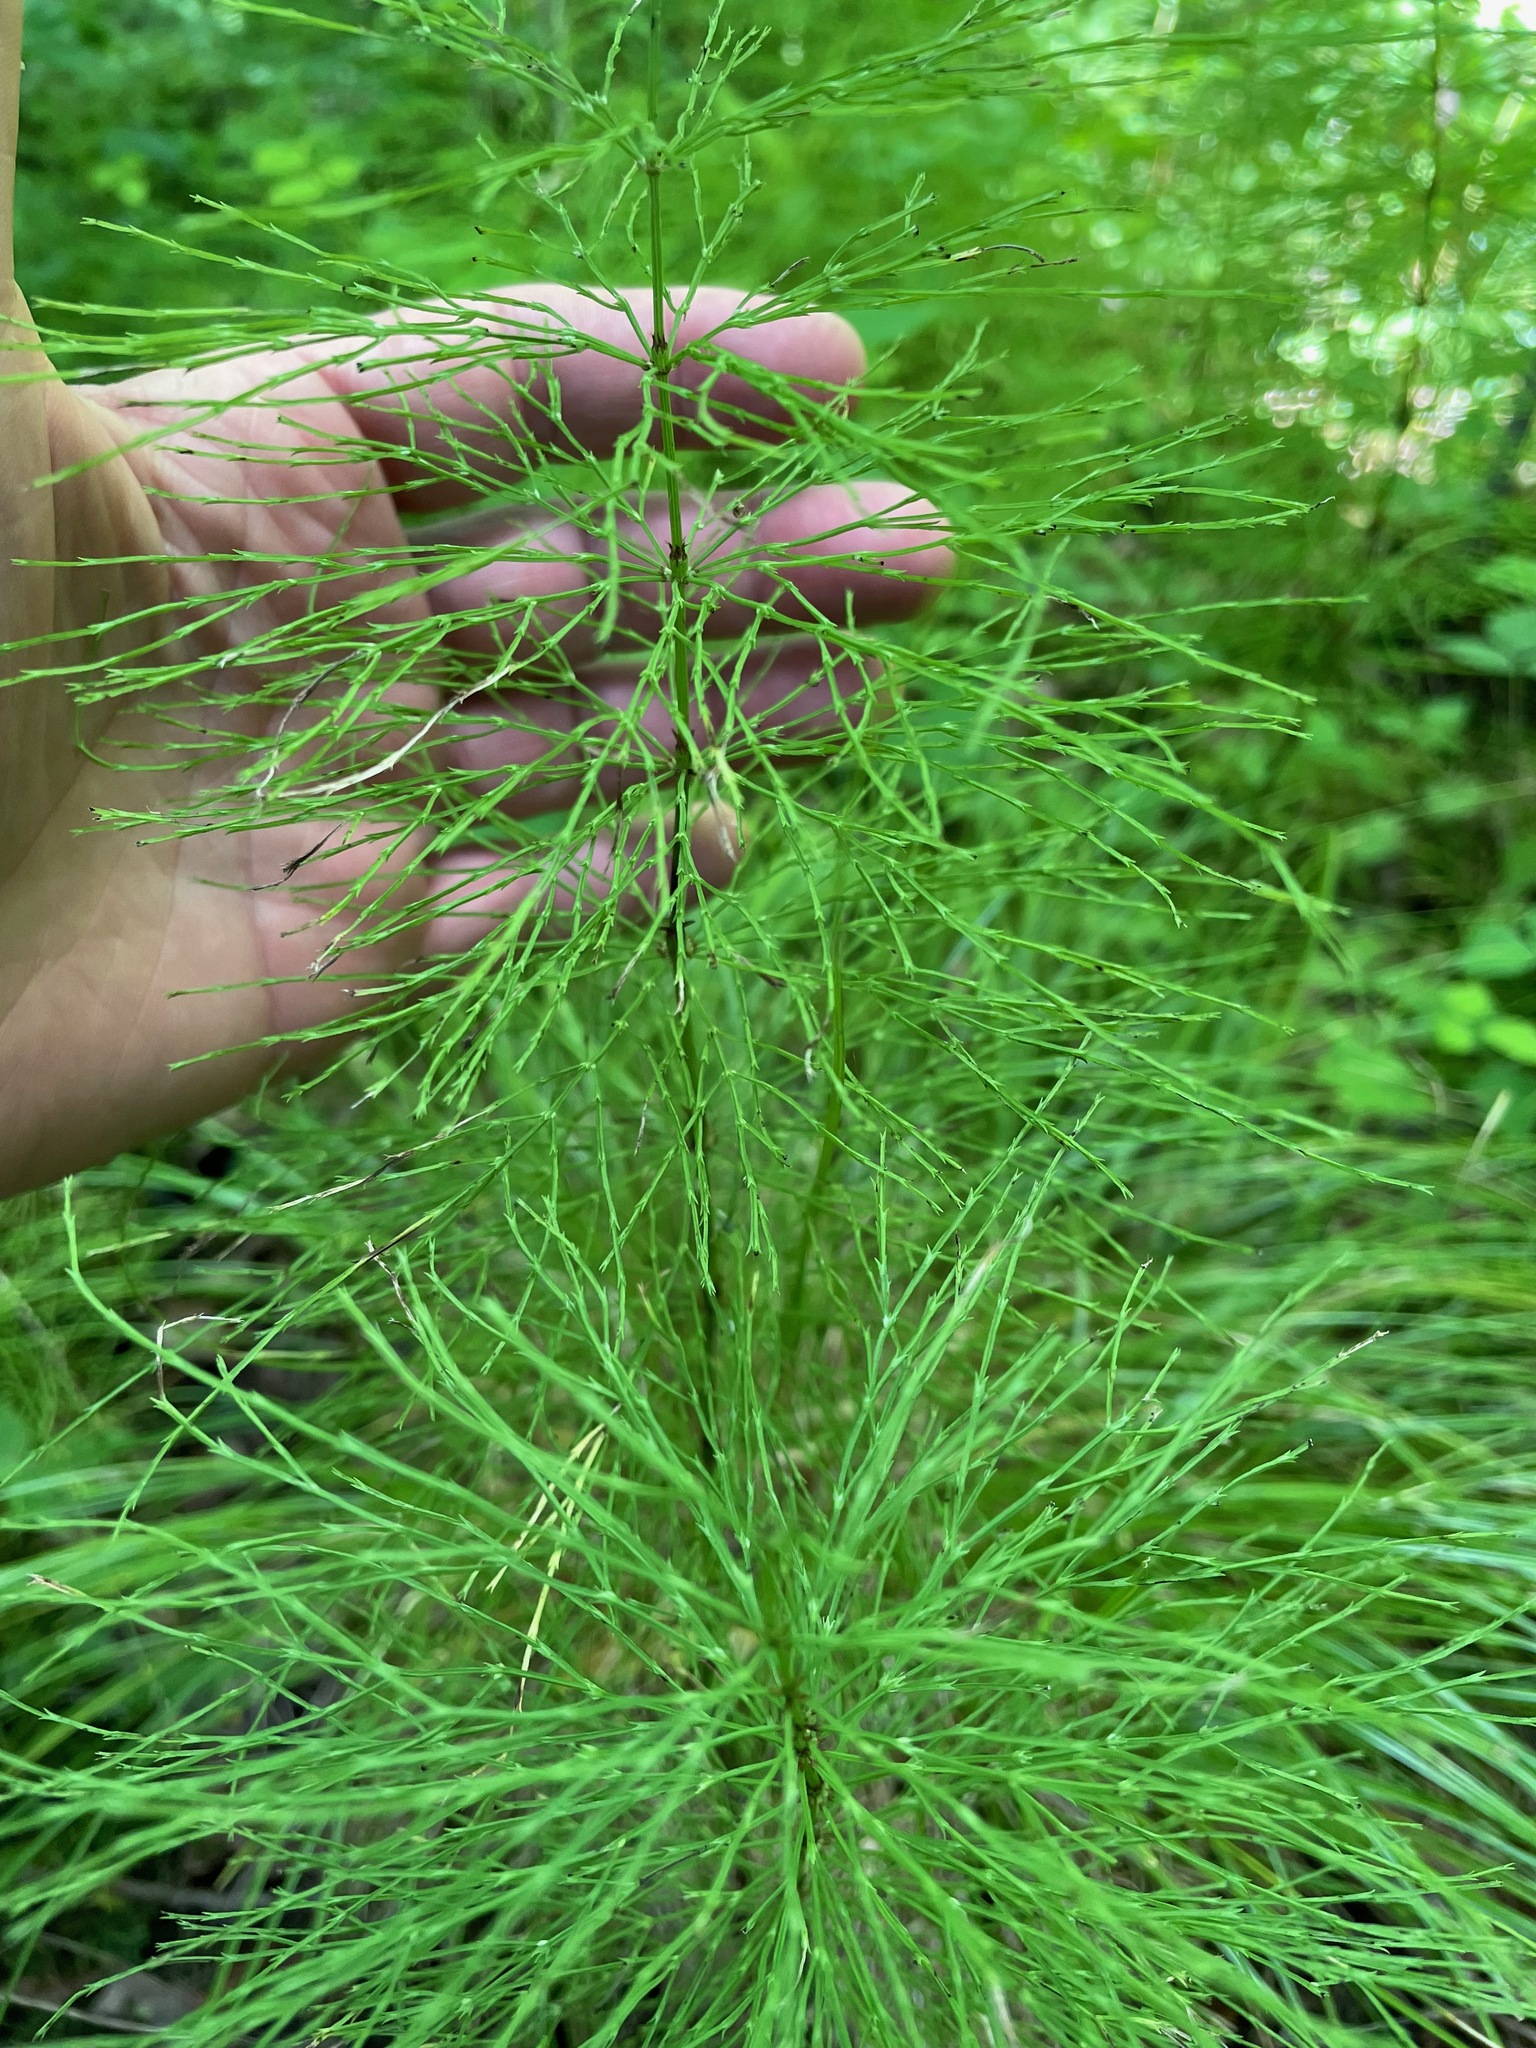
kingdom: Plantae
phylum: Tracheophyta
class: Polypodiopsida
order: Equisetales
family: Equisetaceae
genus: Equisetum
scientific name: Equisetum sylvaticum
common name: Wood horsetail
